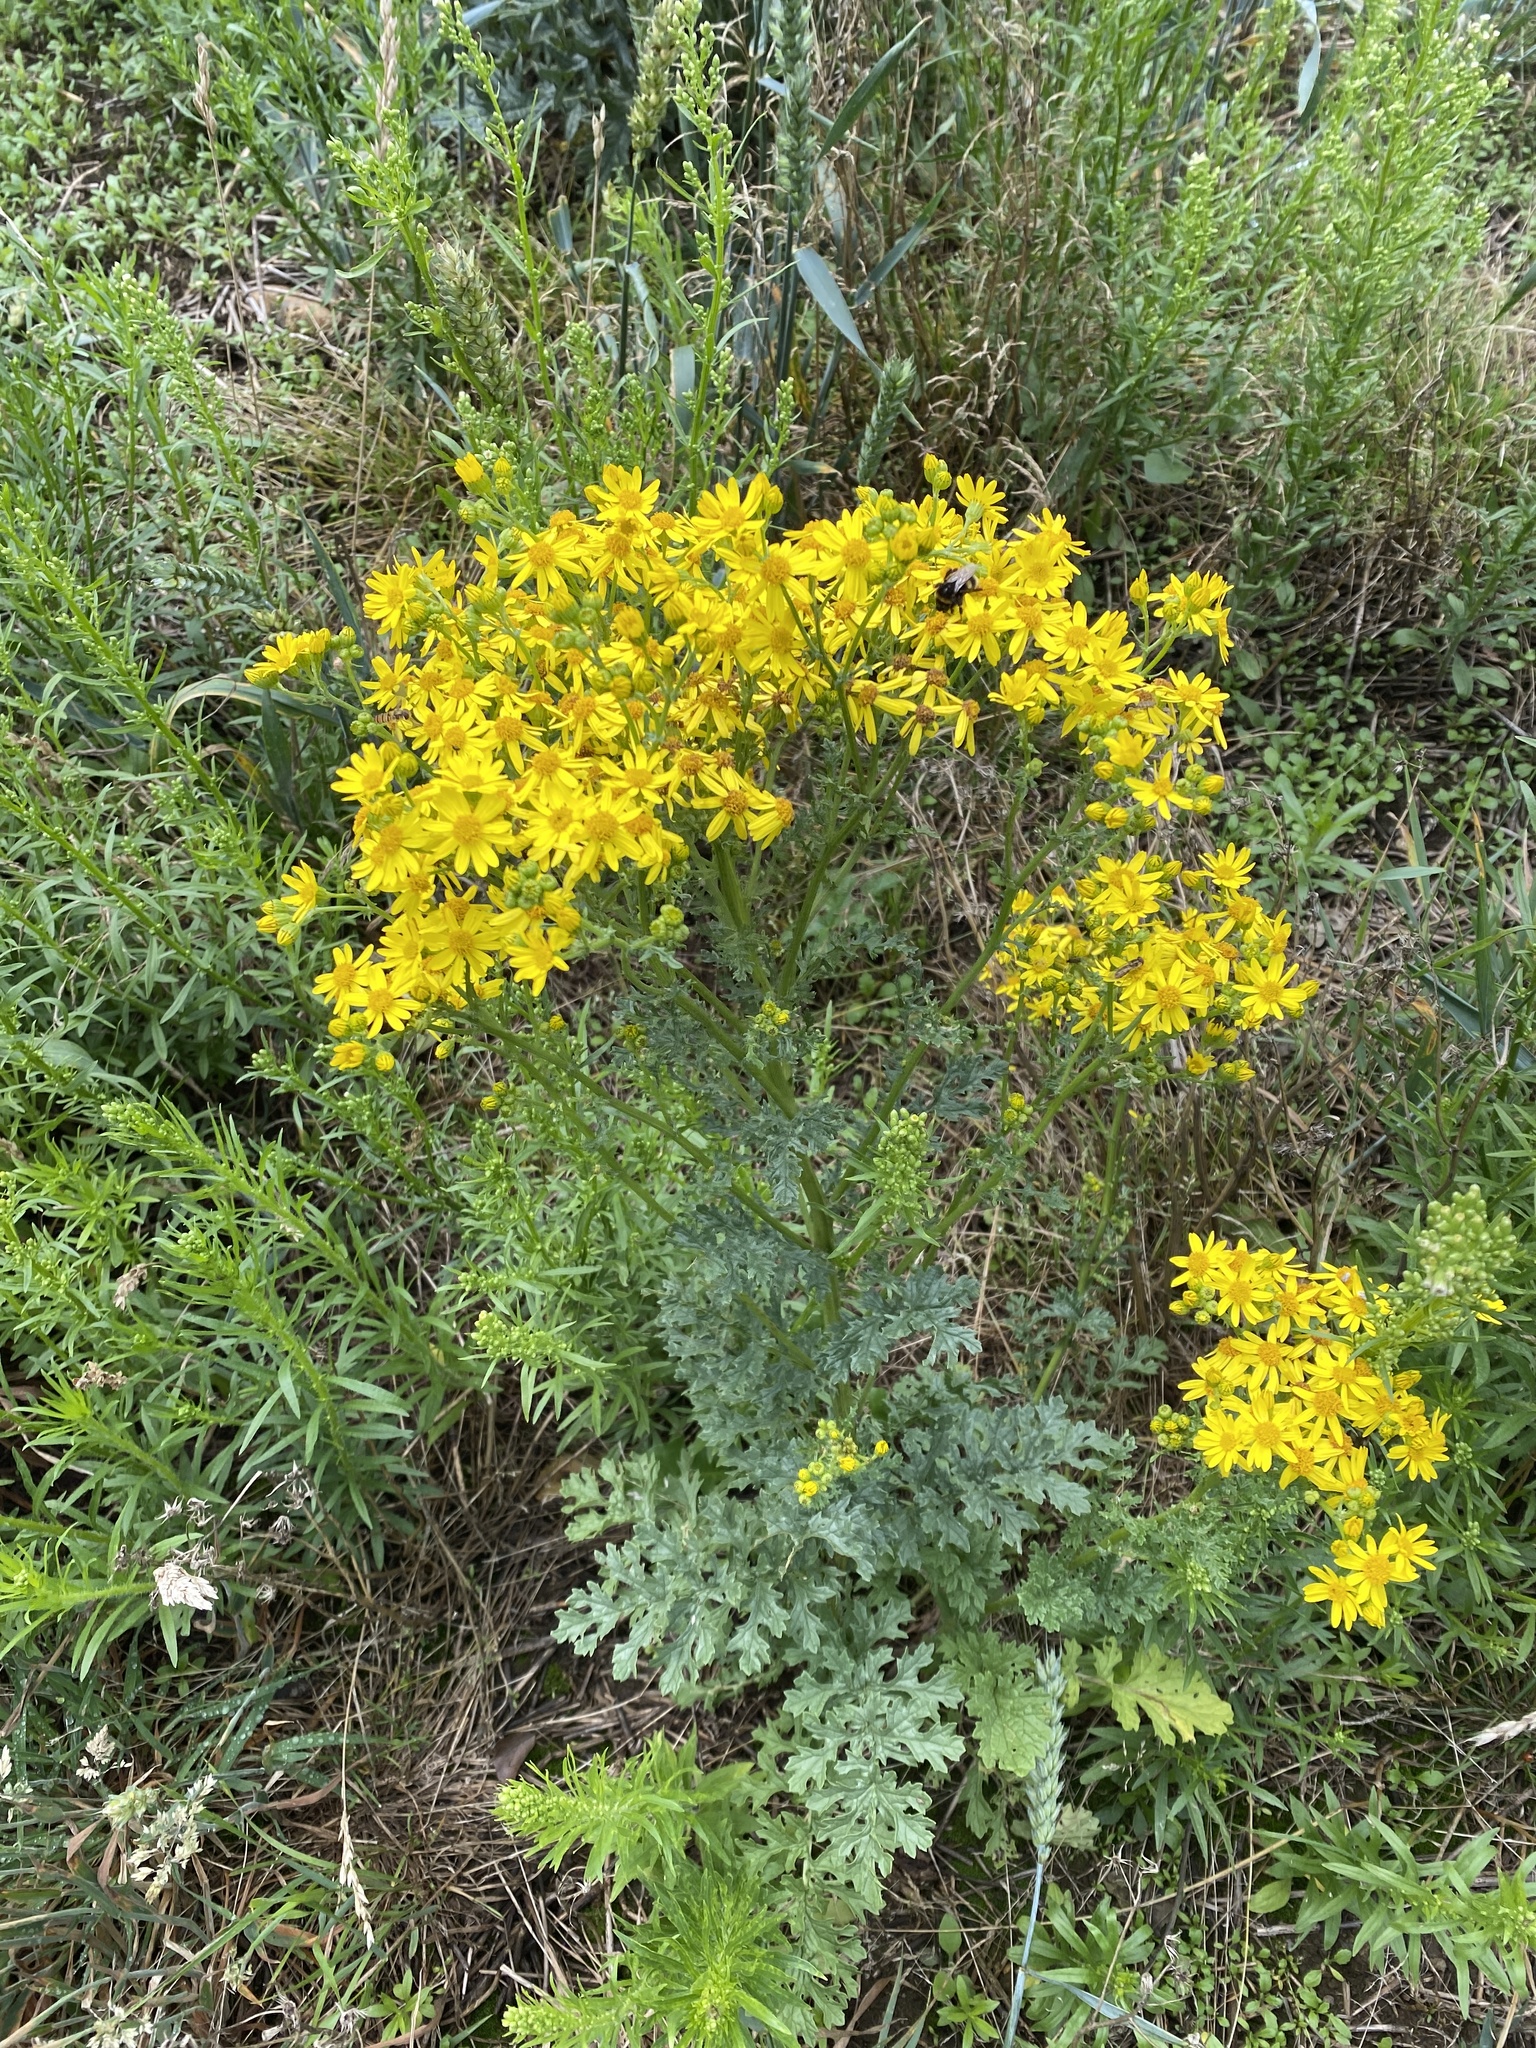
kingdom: Plantae
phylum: Tracheophyta
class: Magnoliopsida
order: Asterales
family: Asteraceae
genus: Jacobaea
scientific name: Jacobaea vulgaris
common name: Stinking willie
